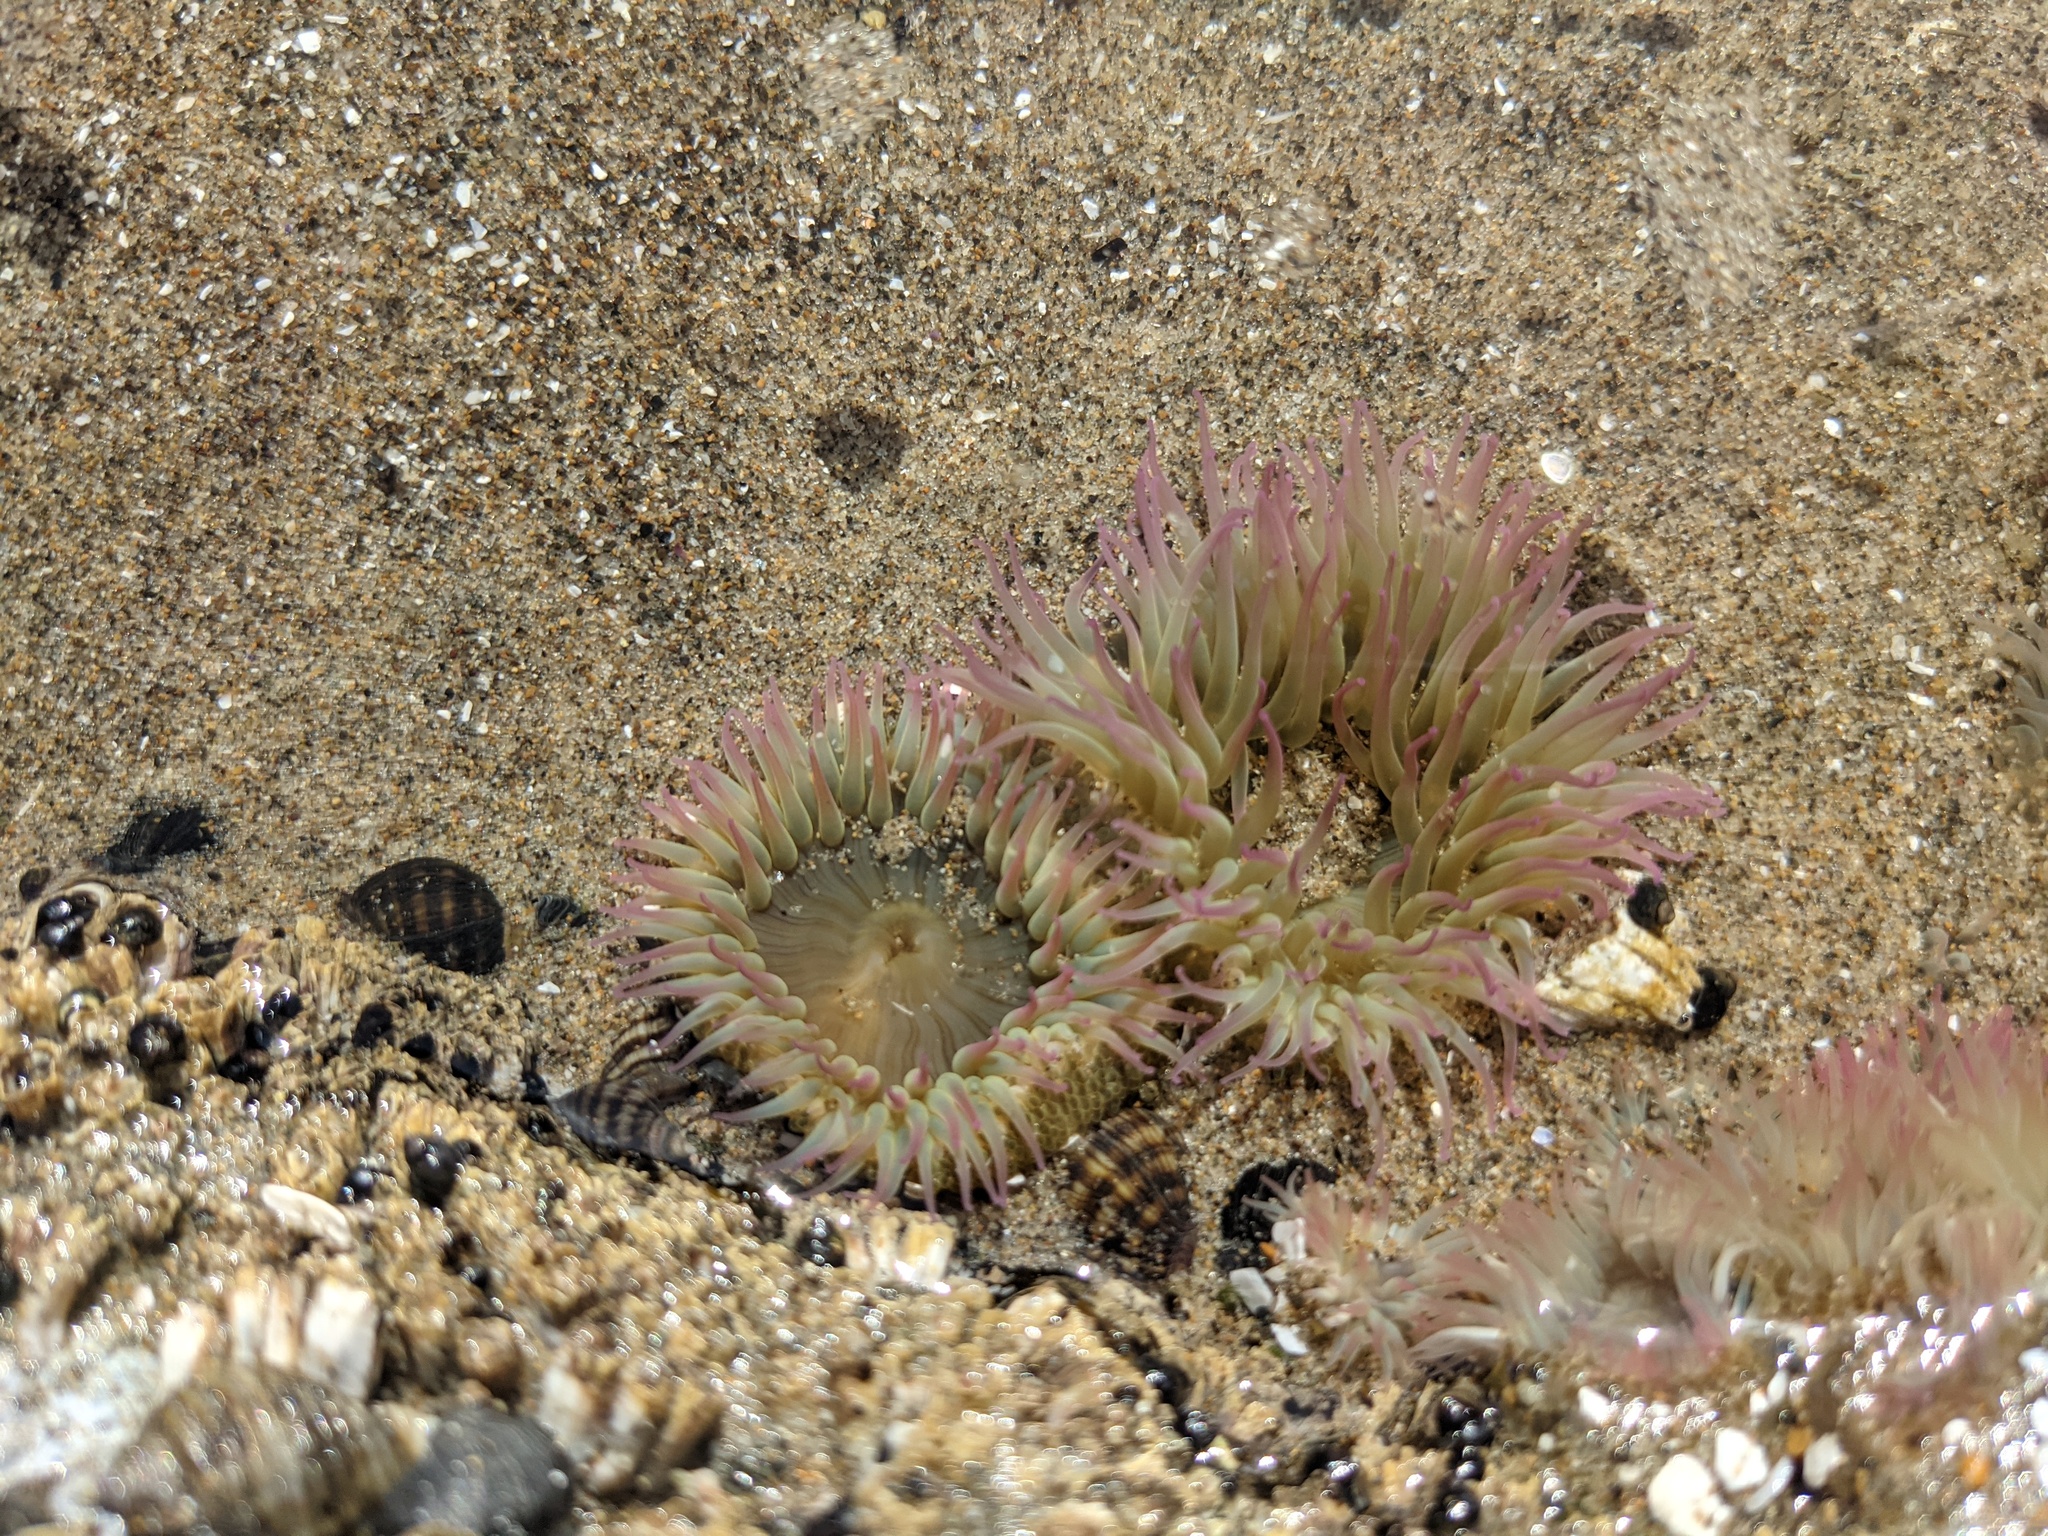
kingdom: Animalia
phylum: Cnidaria
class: Anthozoa
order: Actiniaria
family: Actiniidae
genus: Anthopleura
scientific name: Anthopleura elegantissima
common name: Clonal anemone
